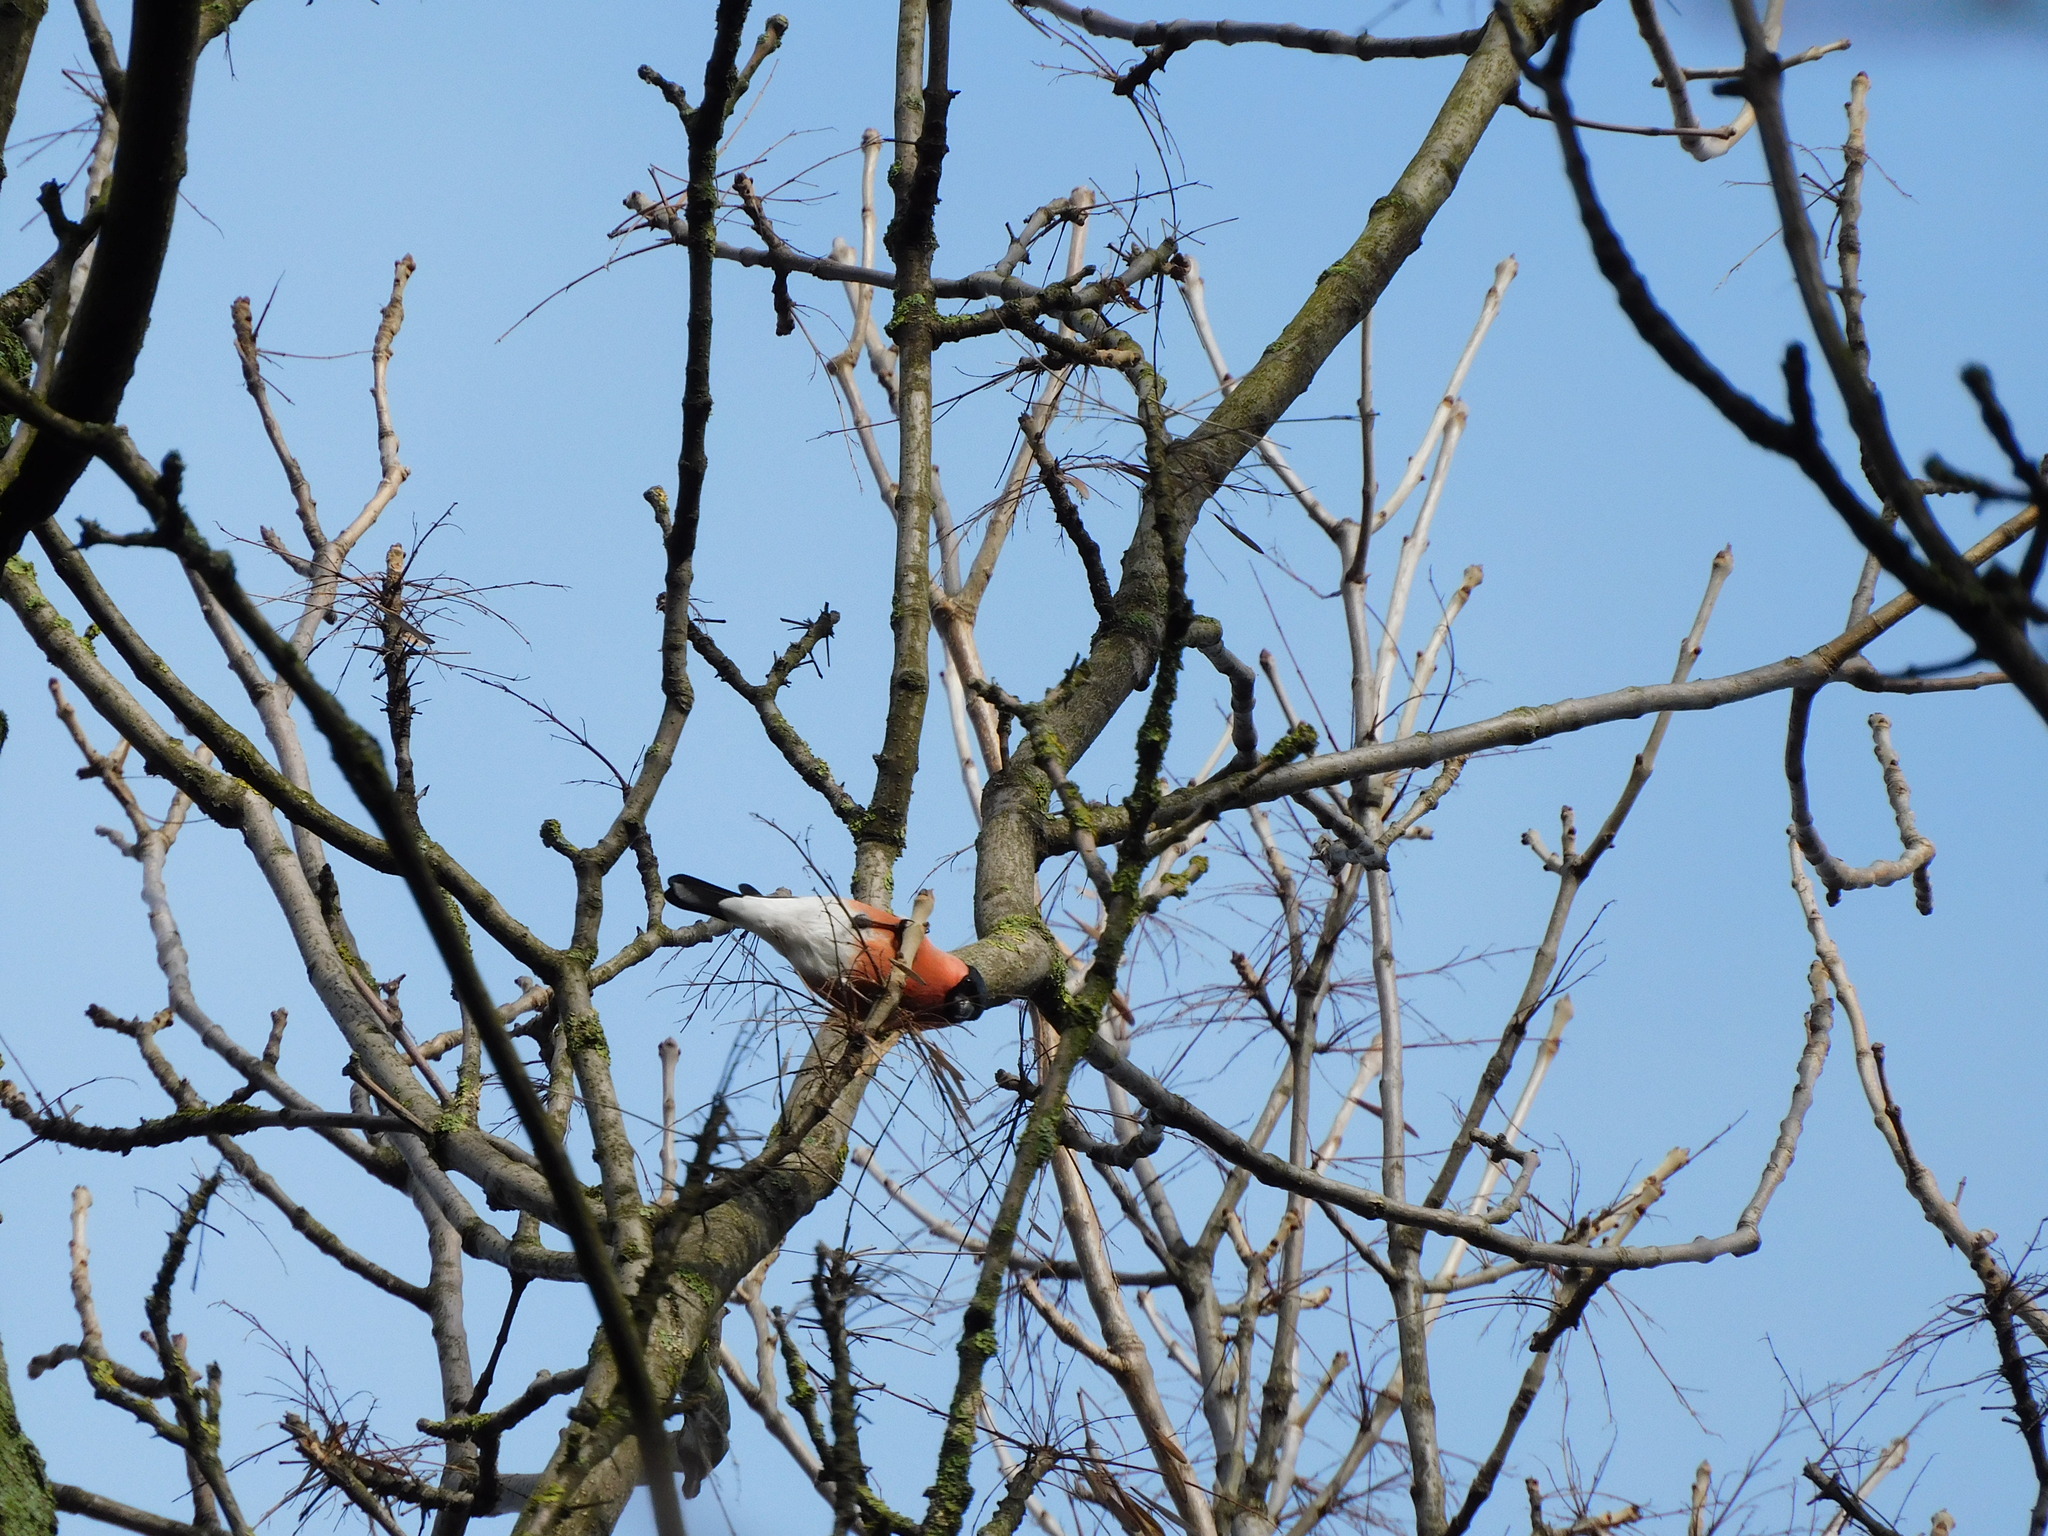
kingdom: Animalia
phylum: Chordata
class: Aves
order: Passeriformes
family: Fringillidae
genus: Pyrrhula
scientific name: Pyrrhula pyrrhula
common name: Eurasian bullfinch
